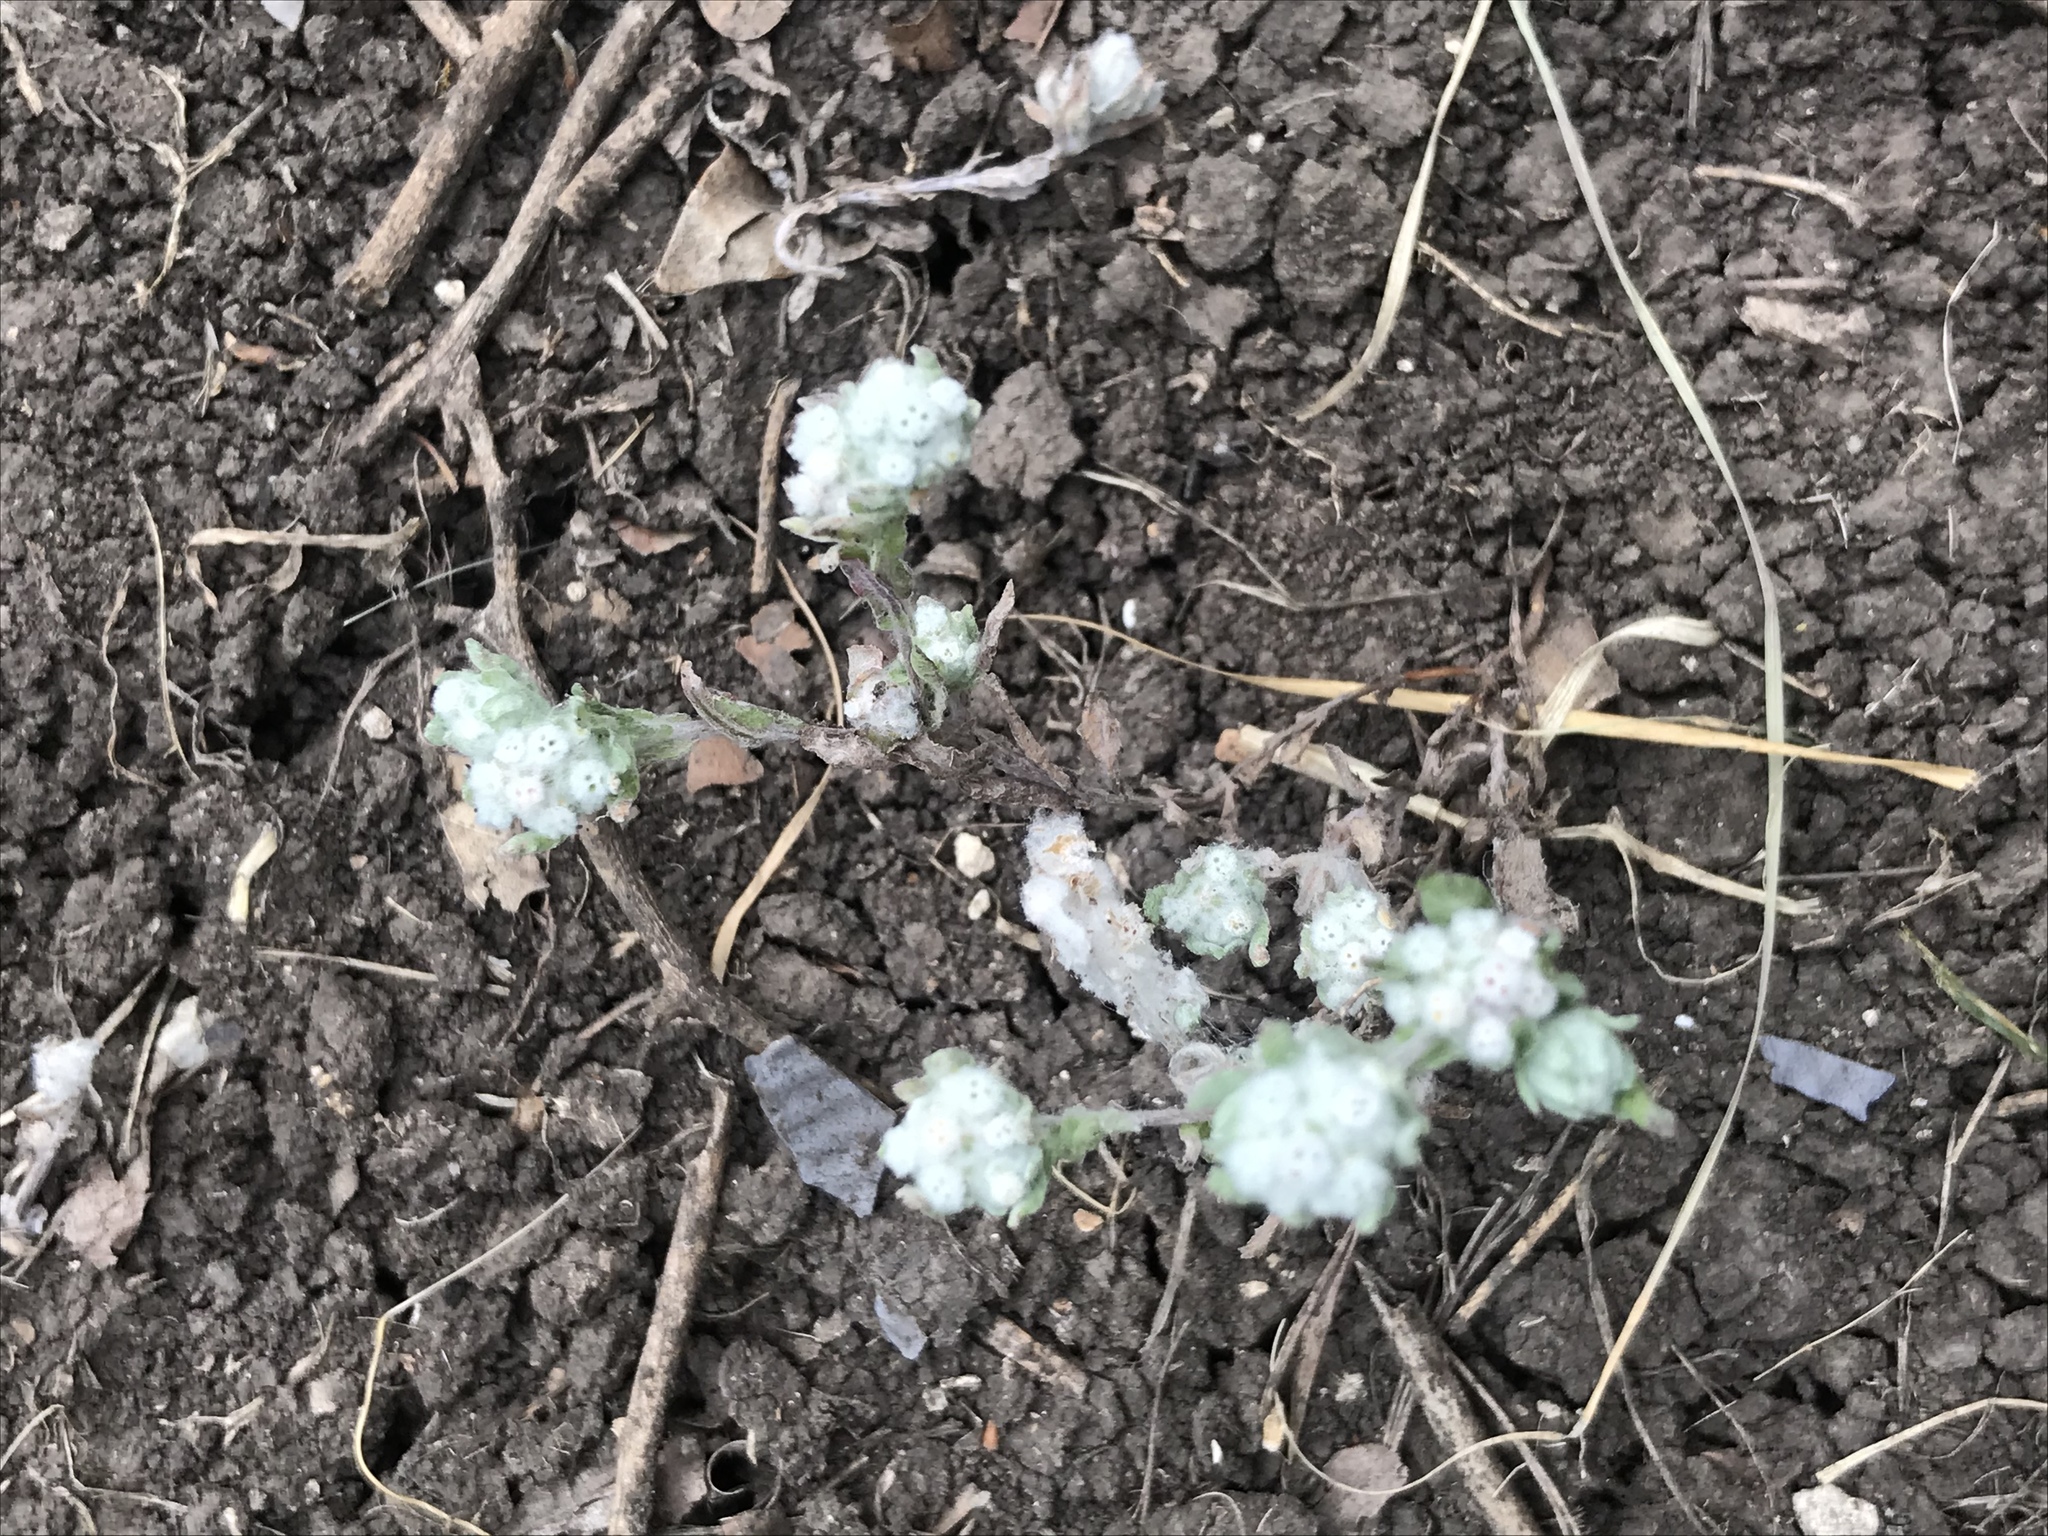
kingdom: Plantae
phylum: Tracheophyta
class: Magnoliopsida
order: Asterales
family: Asteraceae
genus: Diaperia
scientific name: Diaperia verna
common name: Many-stem rabbit-tobacco
